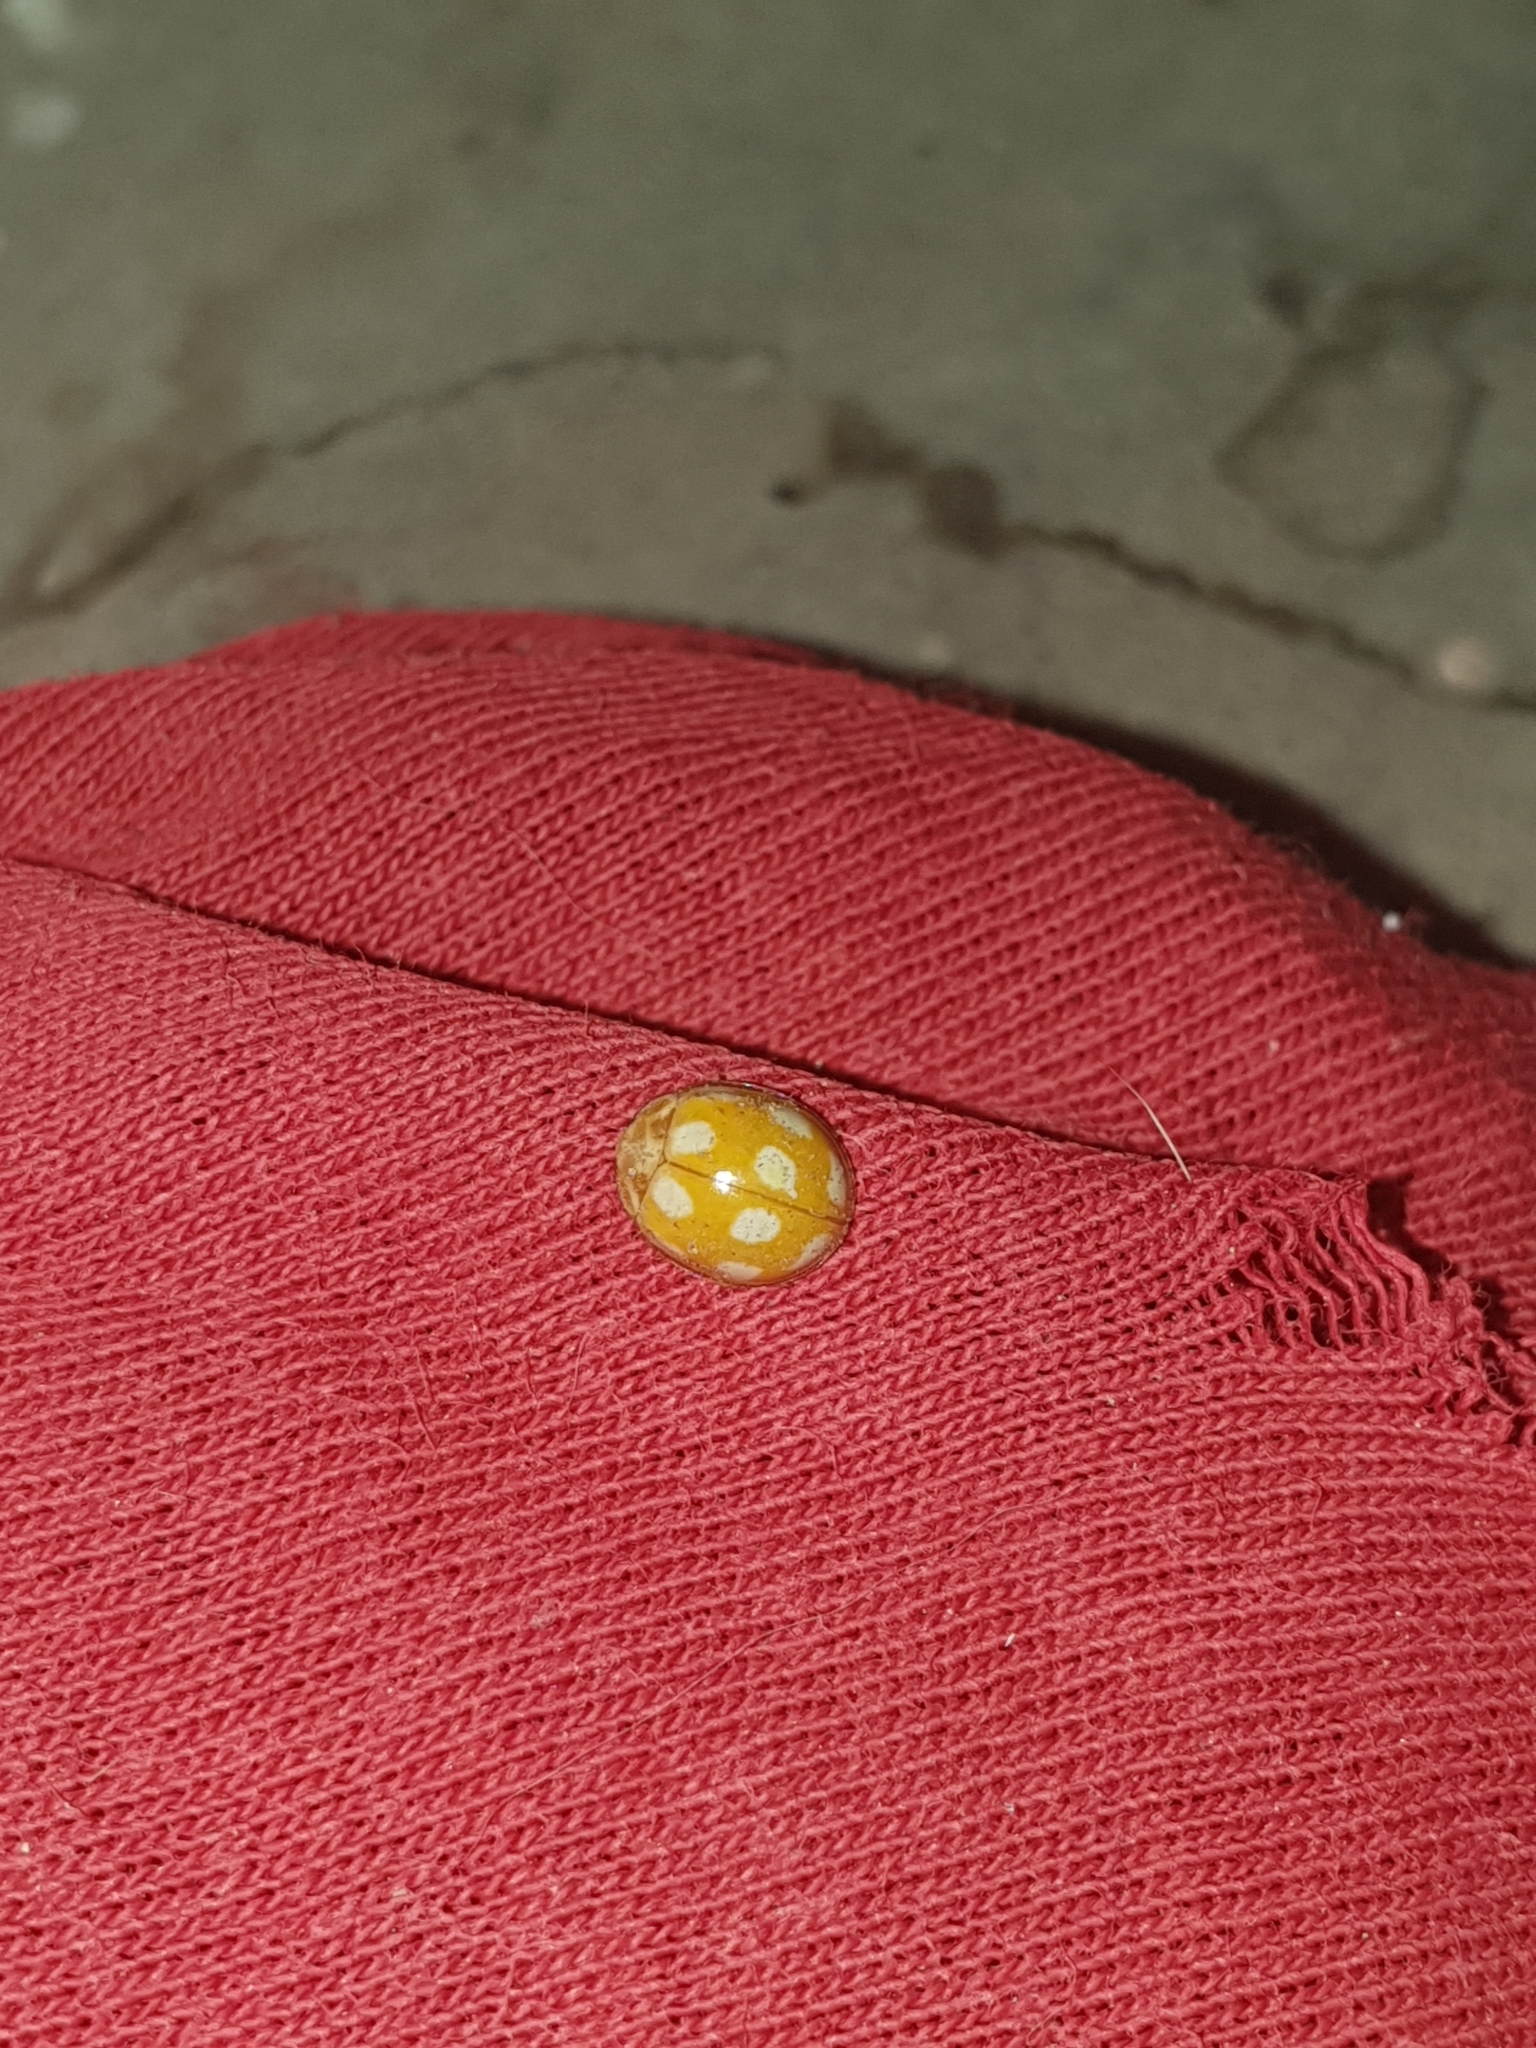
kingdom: Animalia
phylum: Arthropoda
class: Insecta
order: Coleoptera
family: Coccinellidae
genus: Calvia
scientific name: Calvia decemguttata
